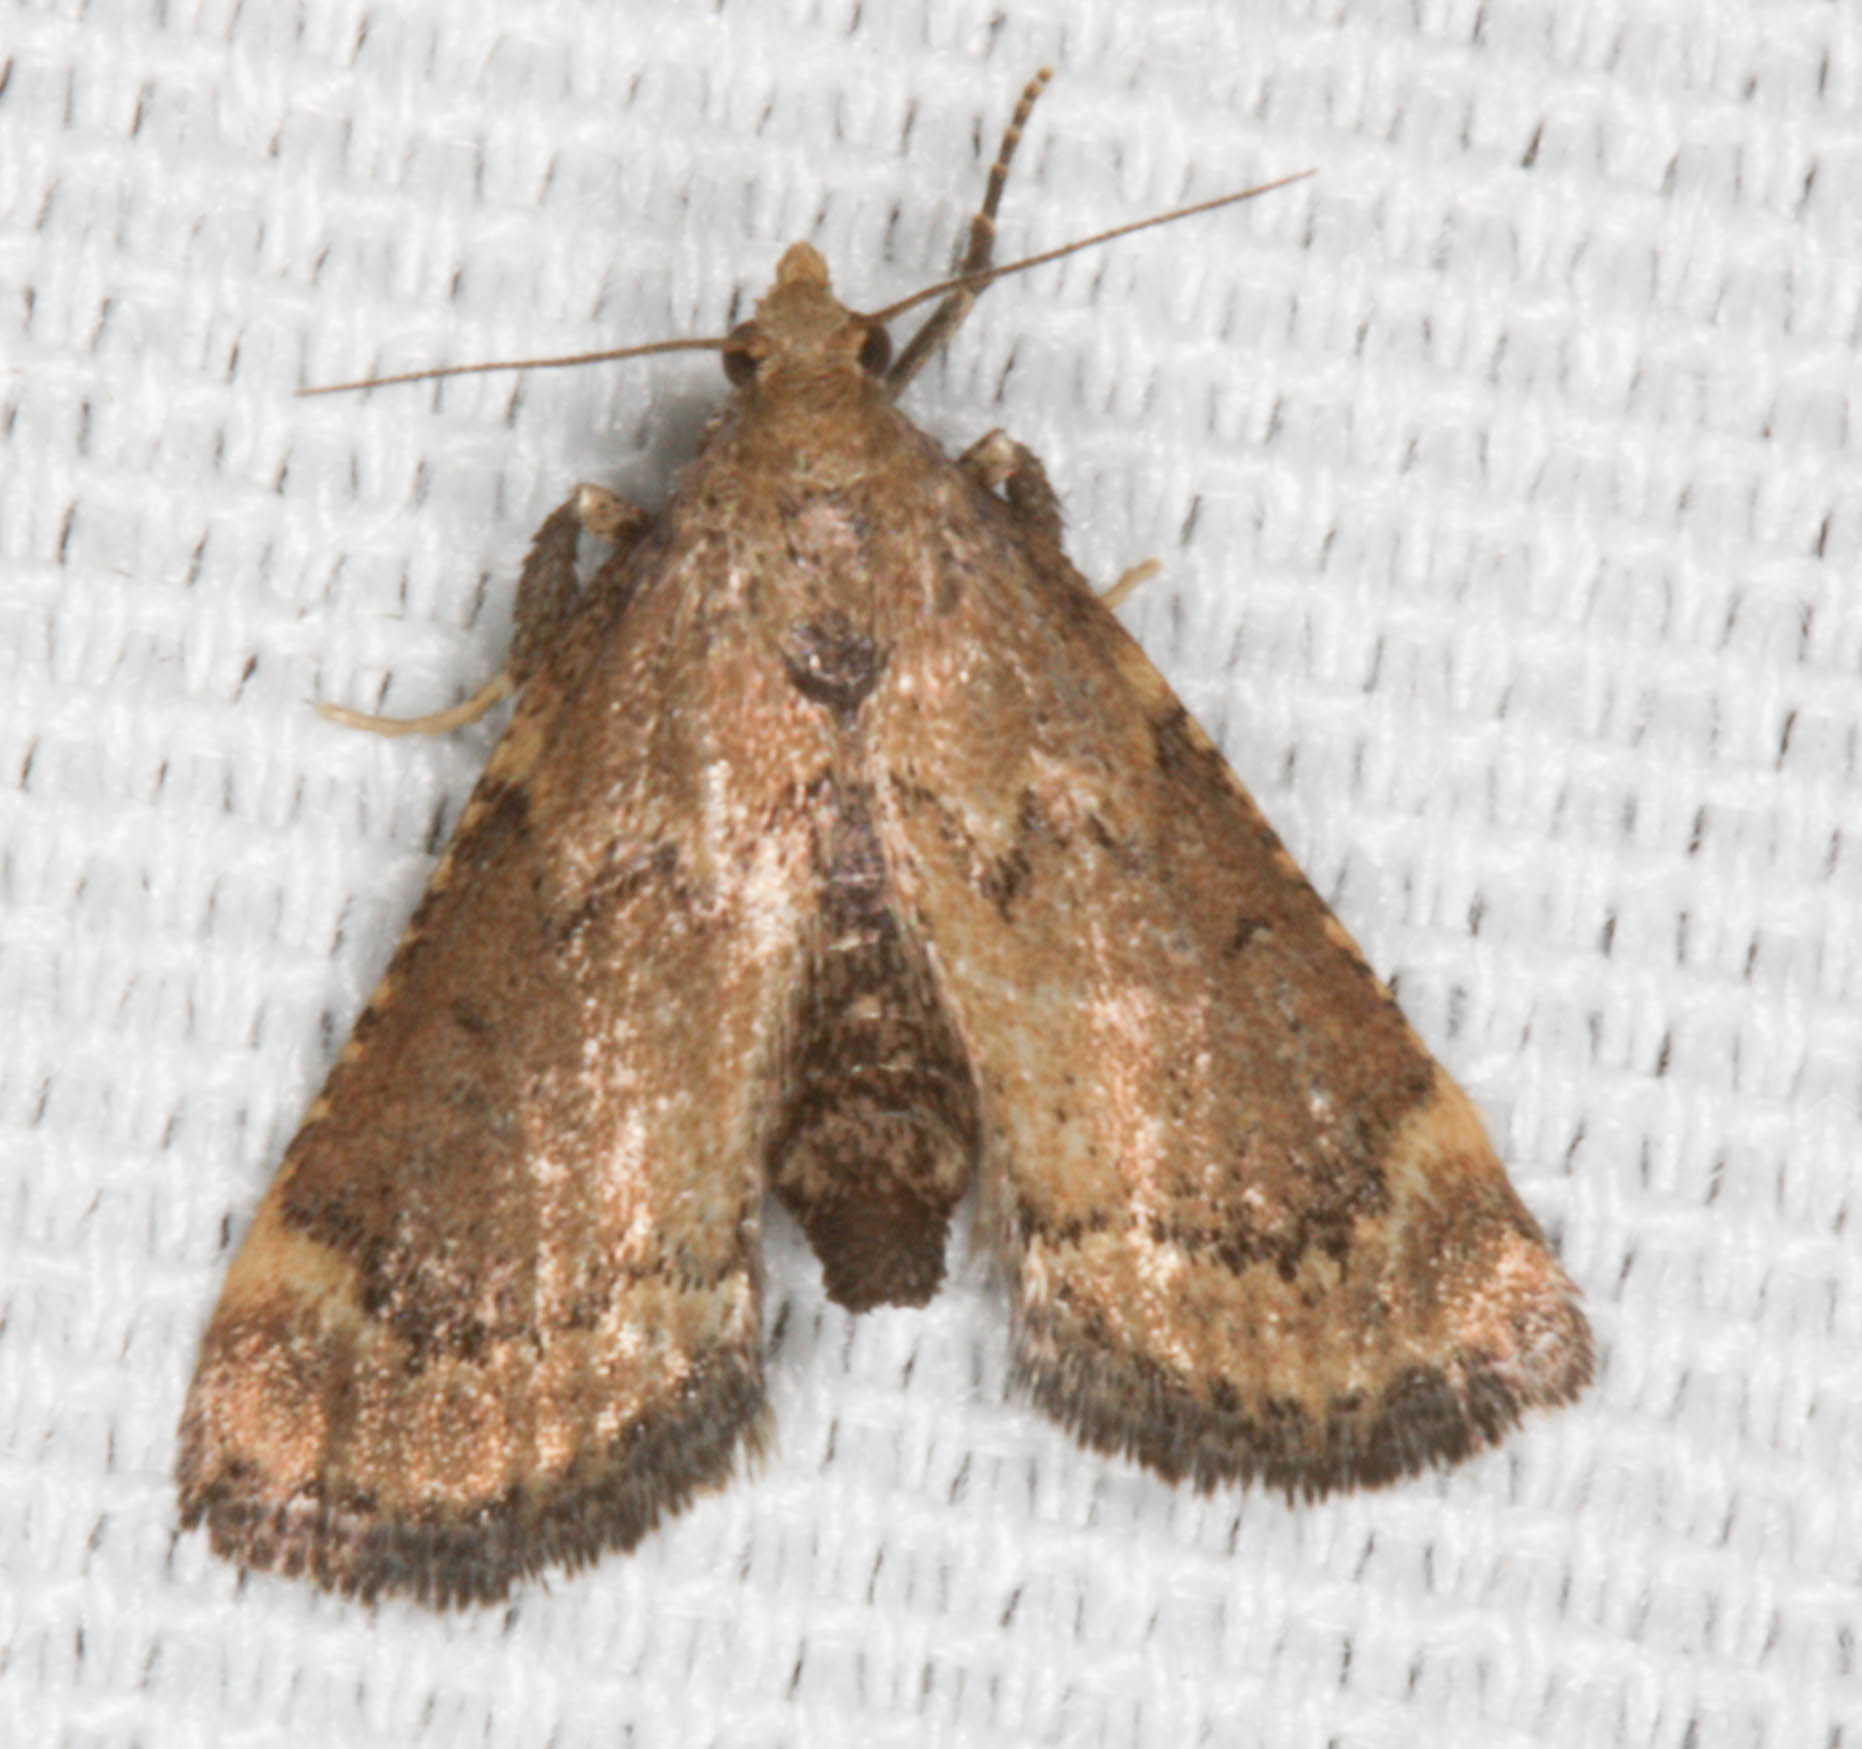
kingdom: Animalia
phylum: Arthropoda
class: Insecta
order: Lepidoptera
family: Pyralidae
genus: Hypsopygia
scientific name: Hypsopygia phoezalis
